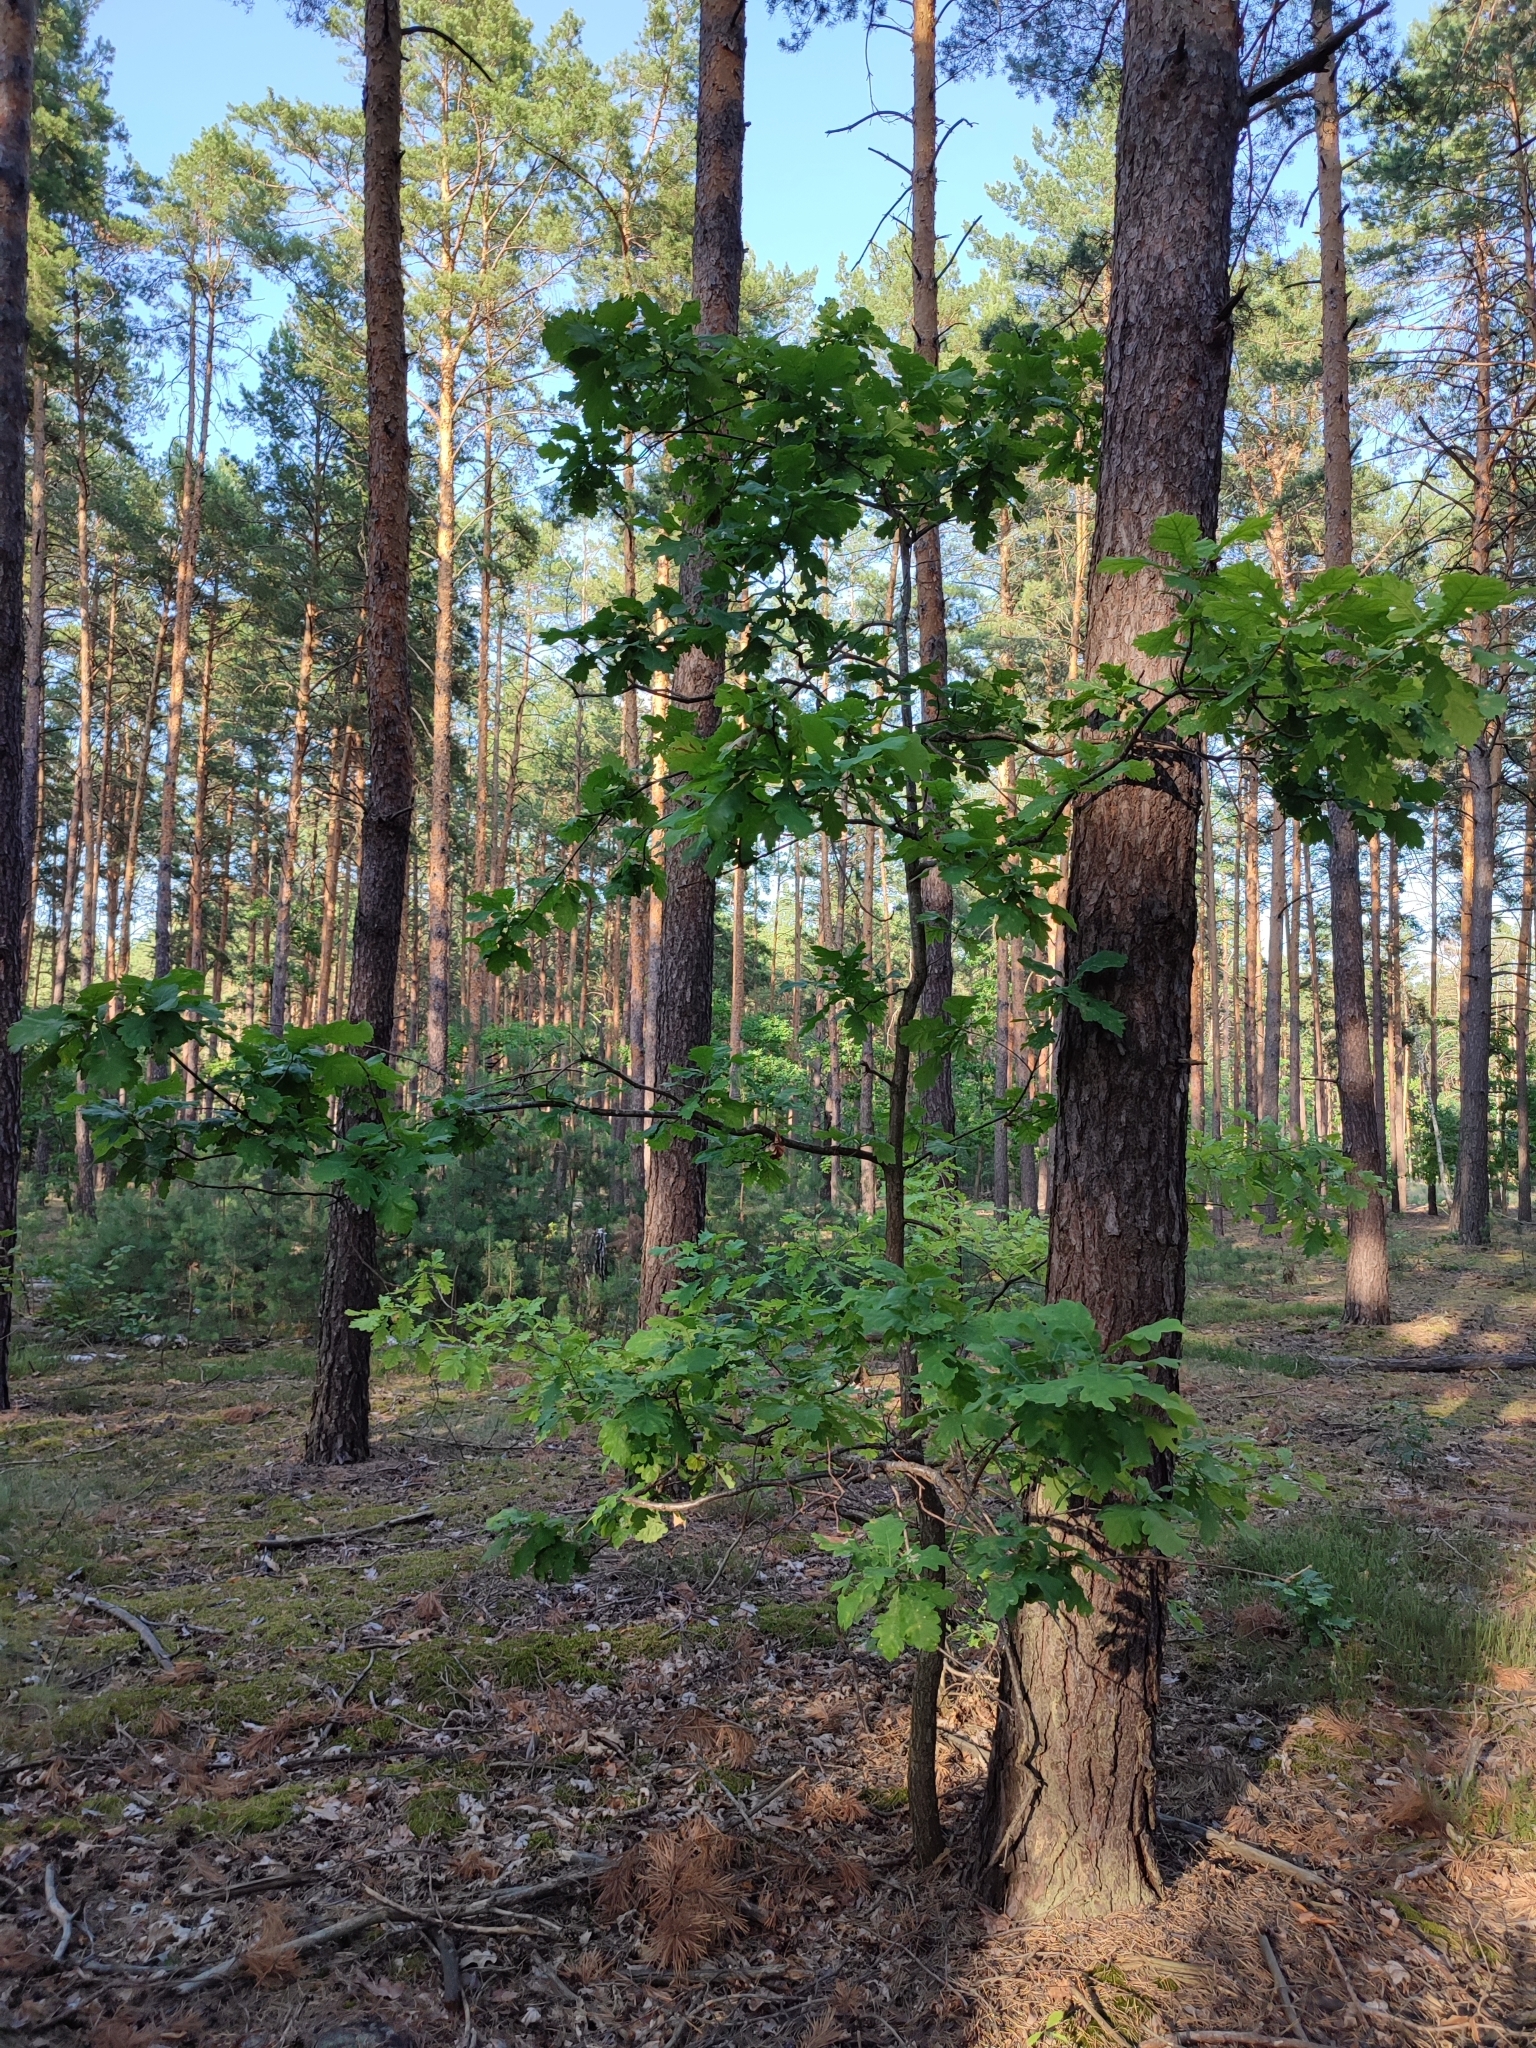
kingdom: Plantae
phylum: Tracheophyta
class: Magnoliopsida
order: Fagales
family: Fagaceae
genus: Quercus
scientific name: Quercus robur
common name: Pedunculate oak
